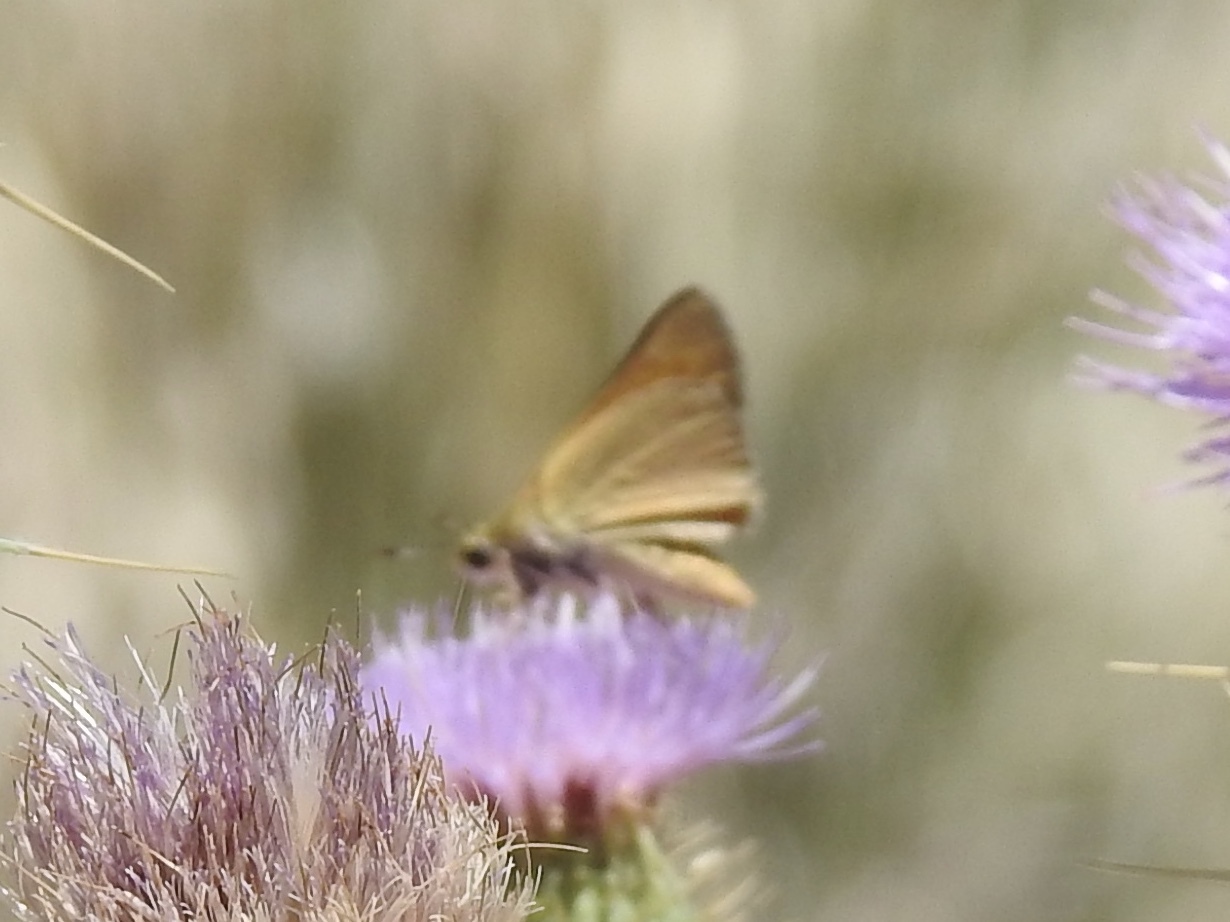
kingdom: Animalia
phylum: Arthropoda
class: Insecta
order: Lepidoptera
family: Hesperiidae
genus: Ochlodes
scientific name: Ochlodes sylvanoides
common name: Woodland skipper
